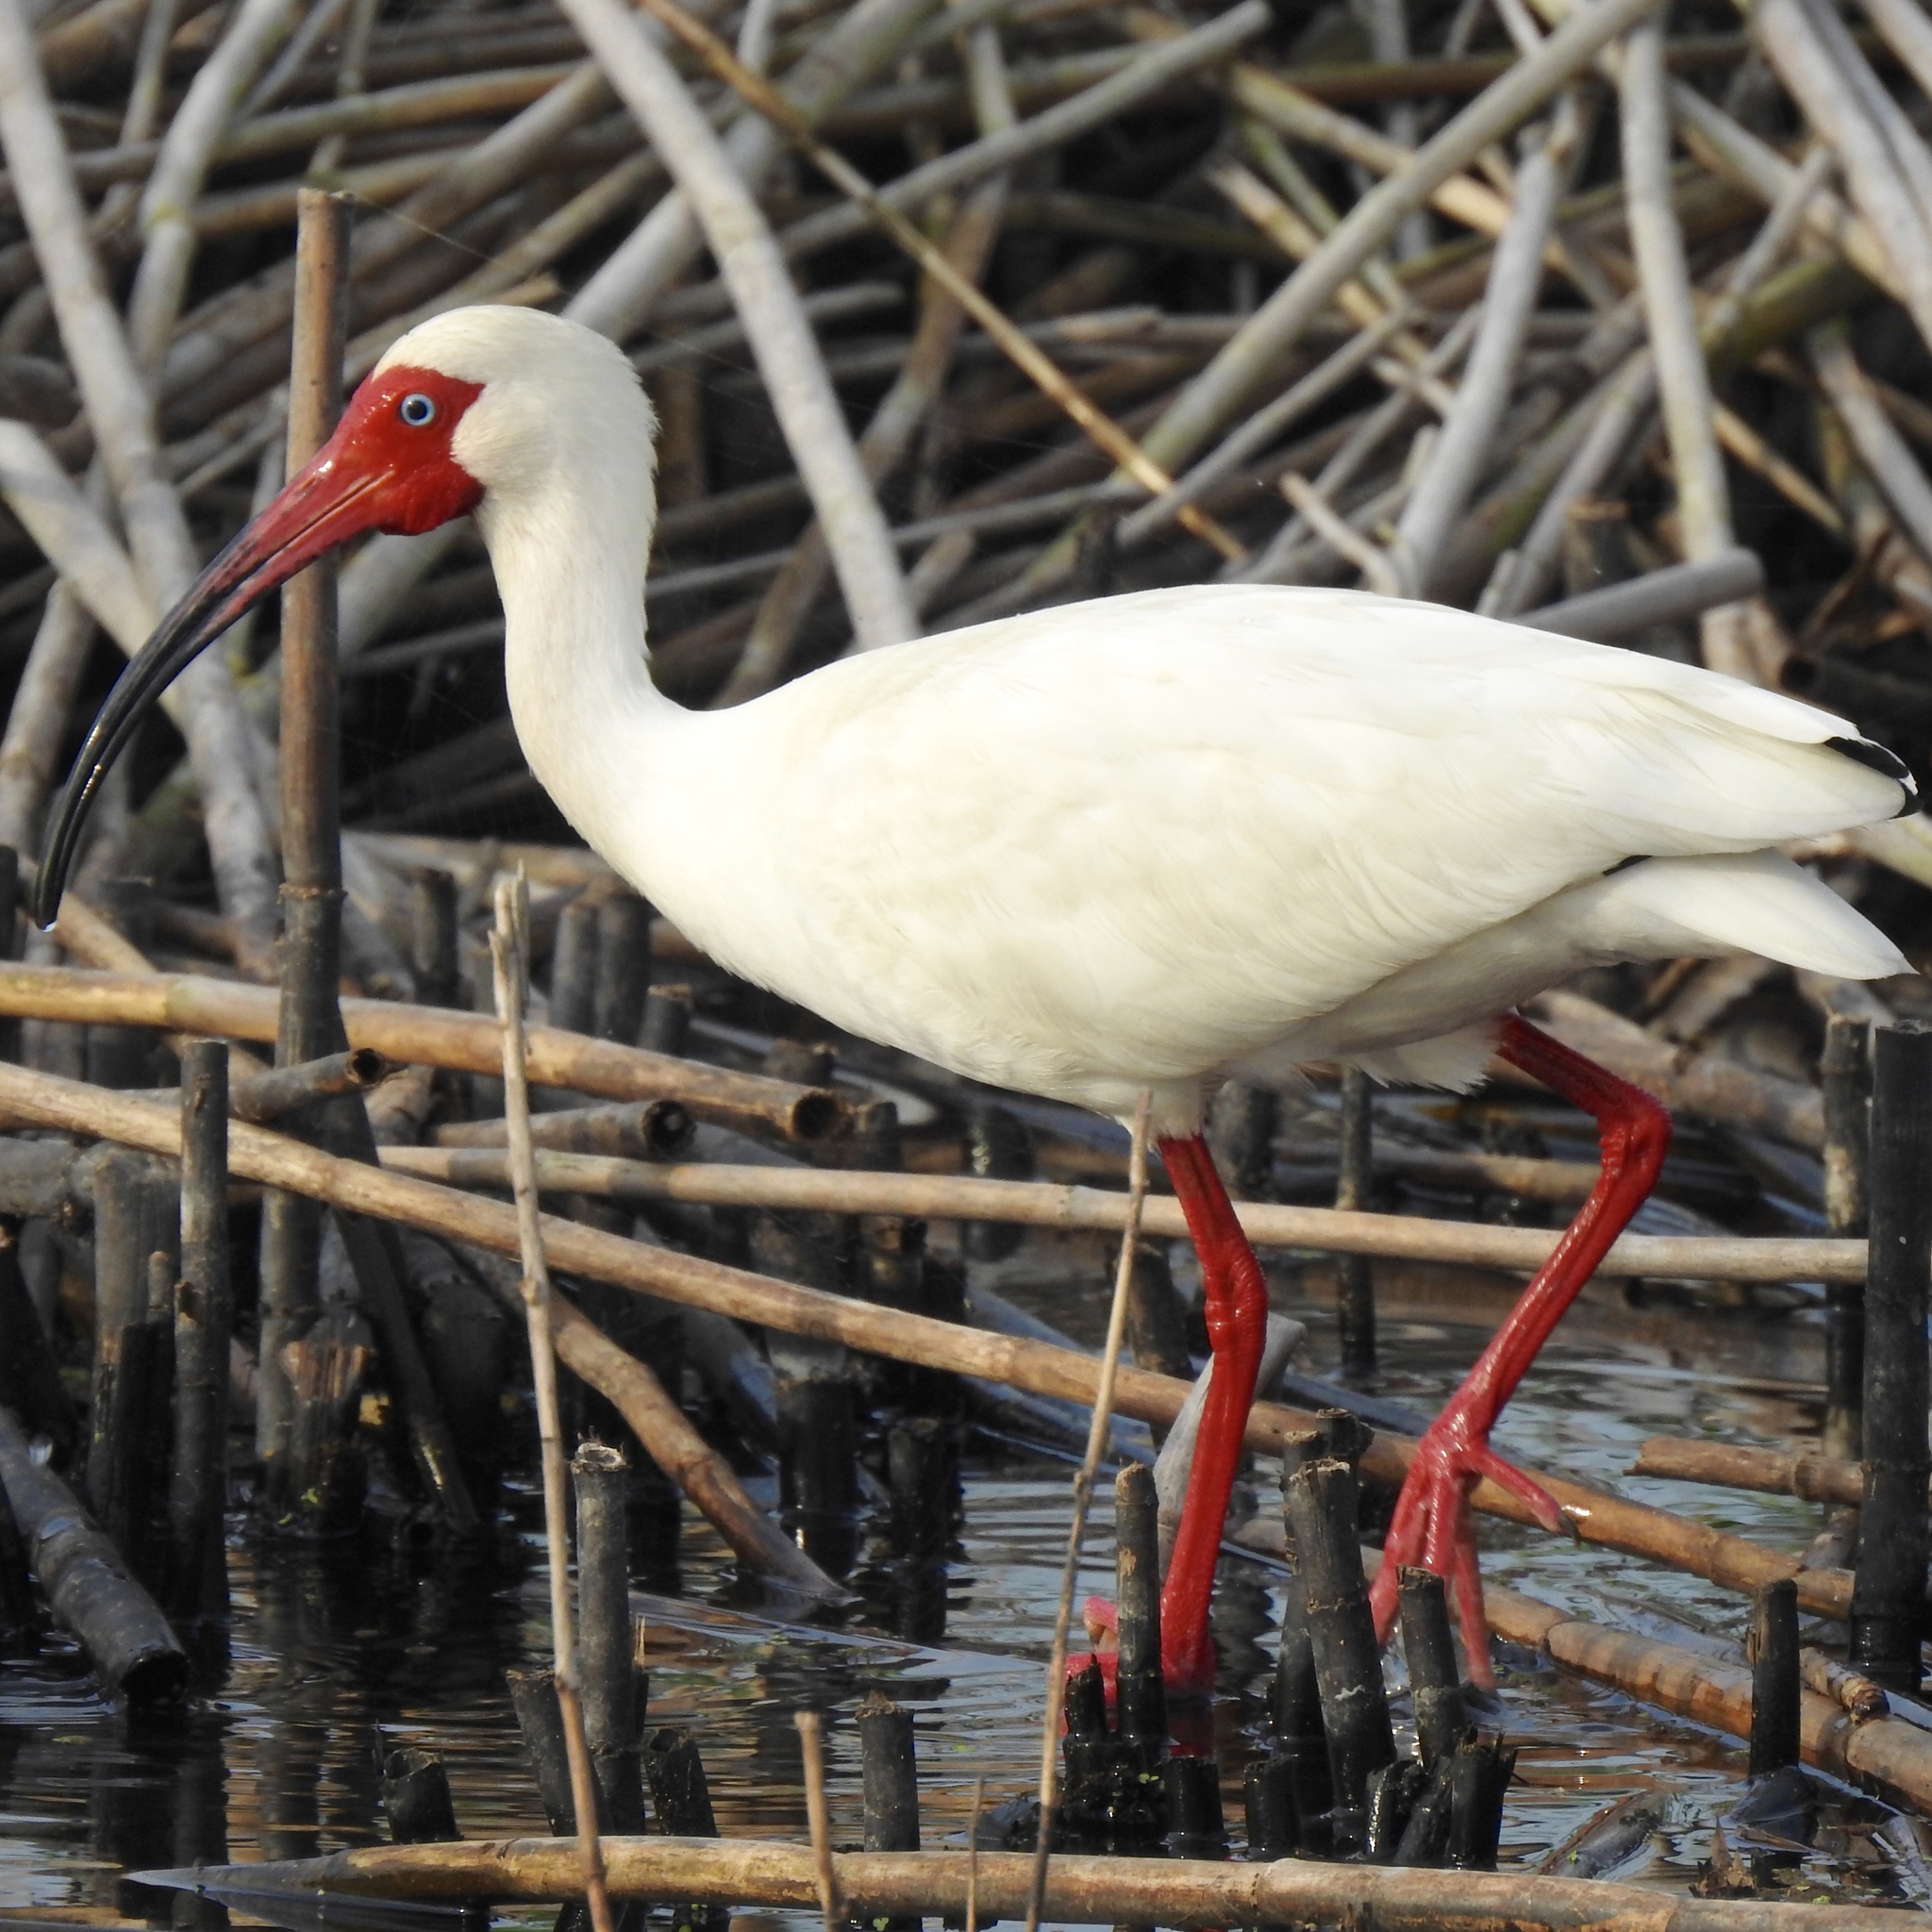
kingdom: Animalia
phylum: Chordata
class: Aves
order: Pelecaniformes
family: Threskiornithidae
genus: Eudocimus
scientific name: Eudocimus albus
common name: White ibis
